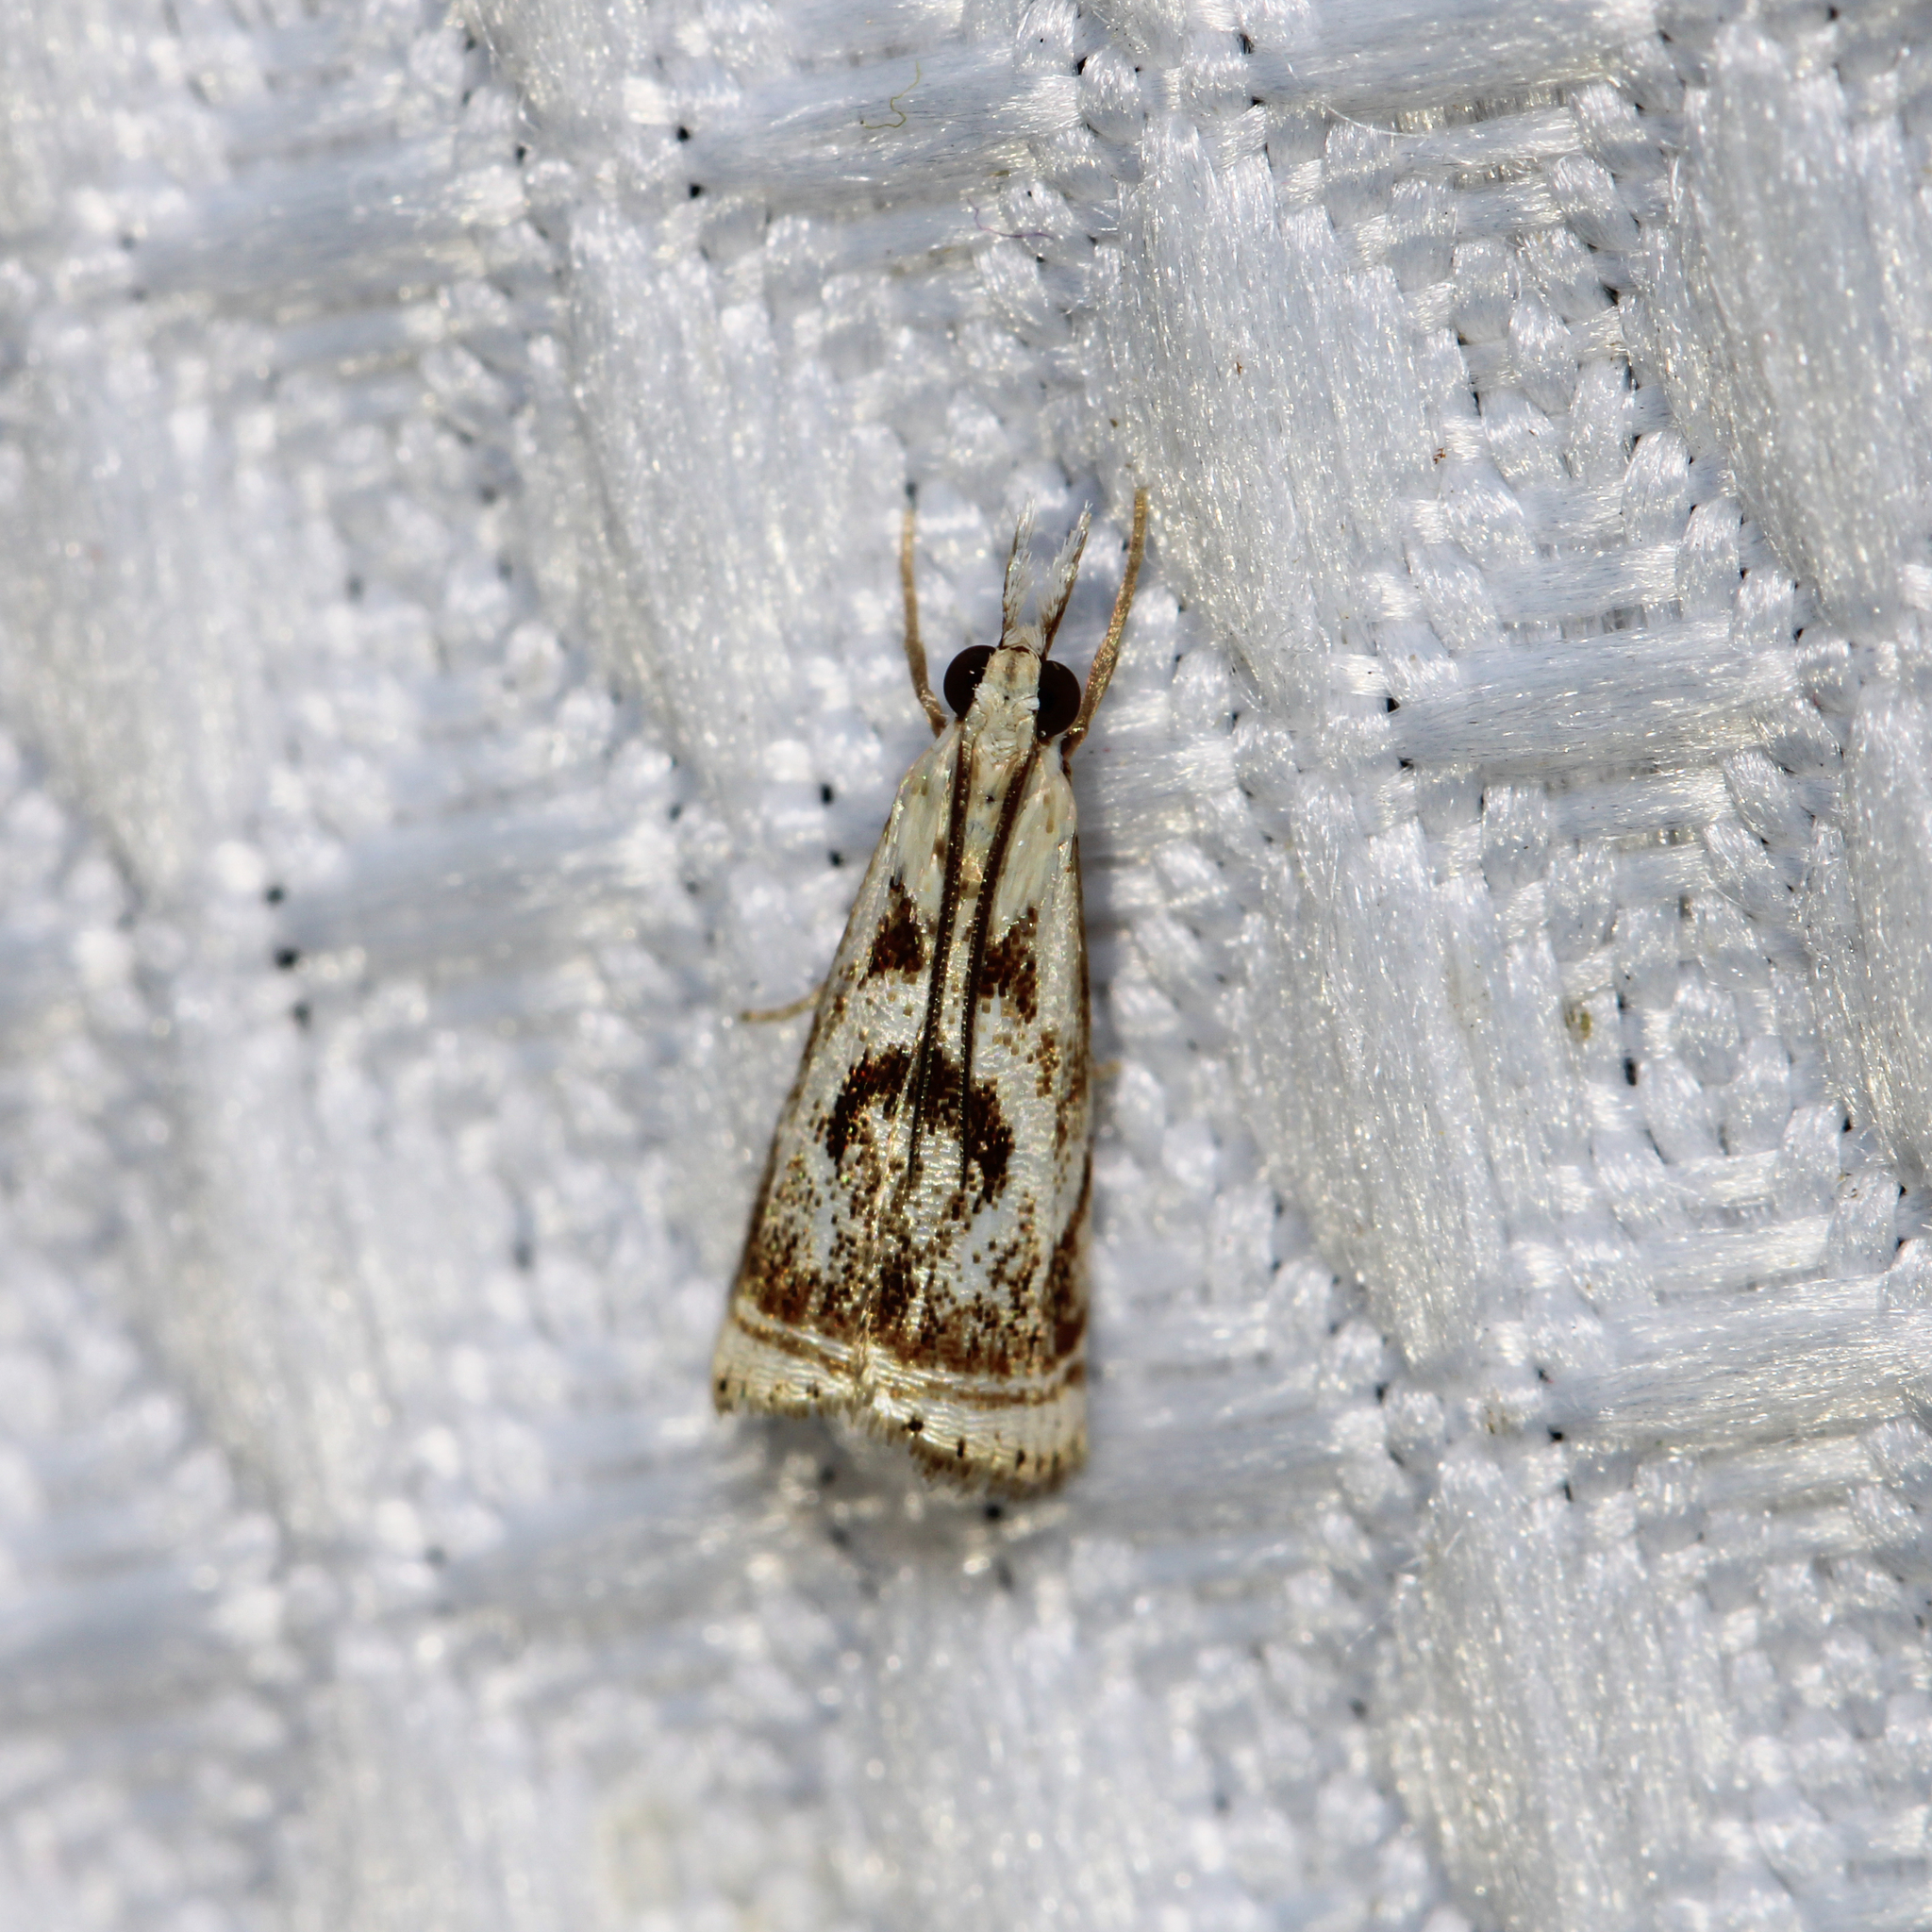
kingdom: Animalia
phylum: Arthropoda
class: Insecta
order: Lepidoptera
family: Crambidae
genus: Microcrambus
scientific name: Microcrambus elegans
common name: Elegant grass-veneer
